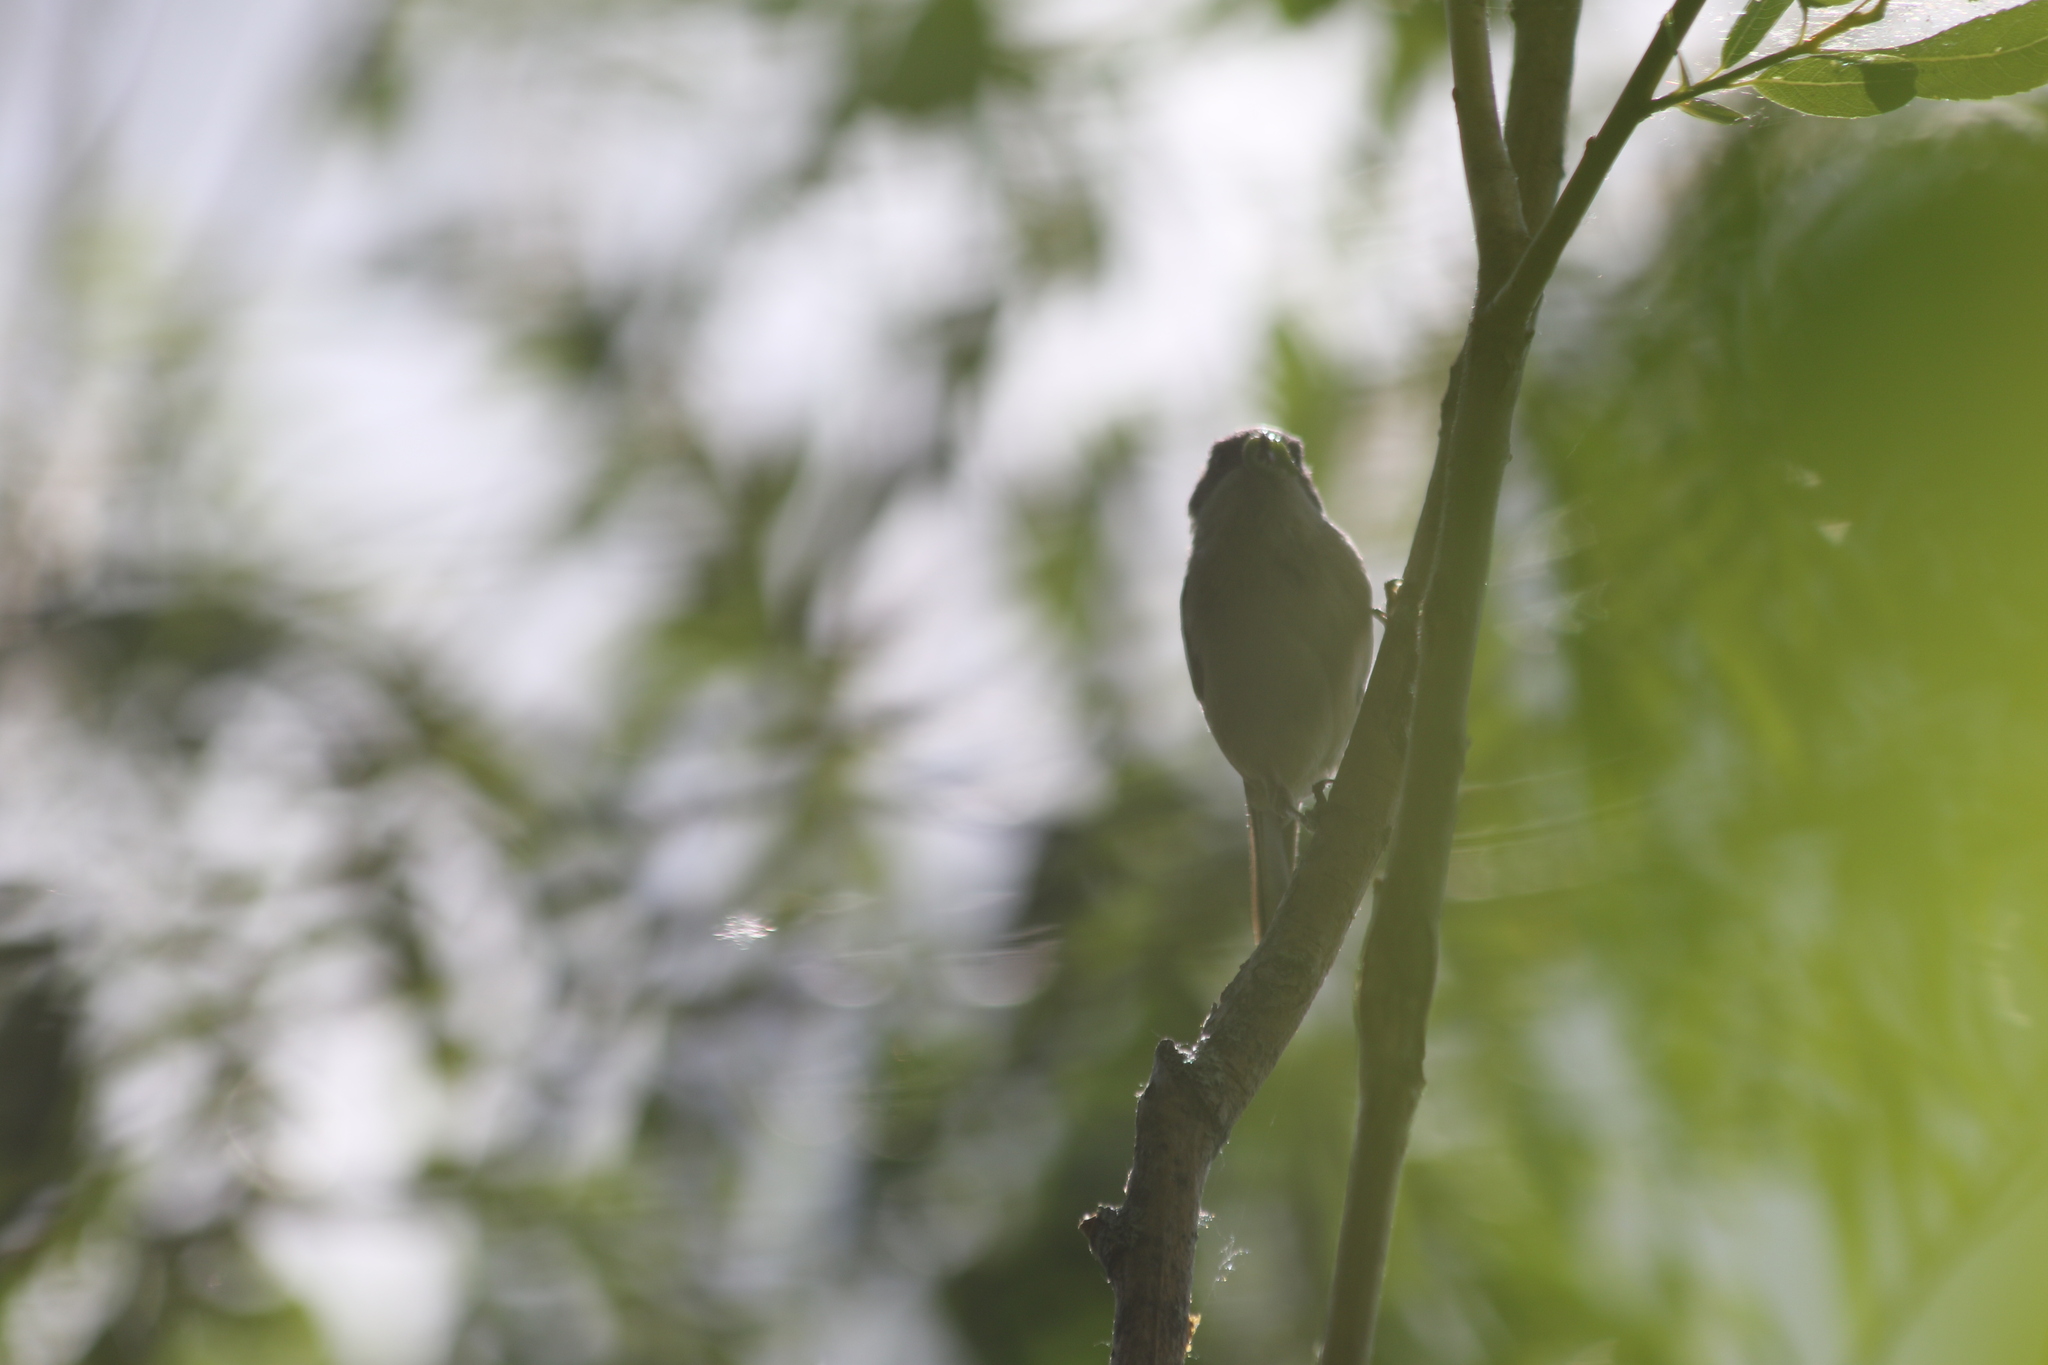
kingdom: Animalia
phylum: Chordata
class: Aves
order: Passeriformes
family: Fringillidae
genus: Fringilla
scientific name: Fringilla montifringilla
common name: Brambling
